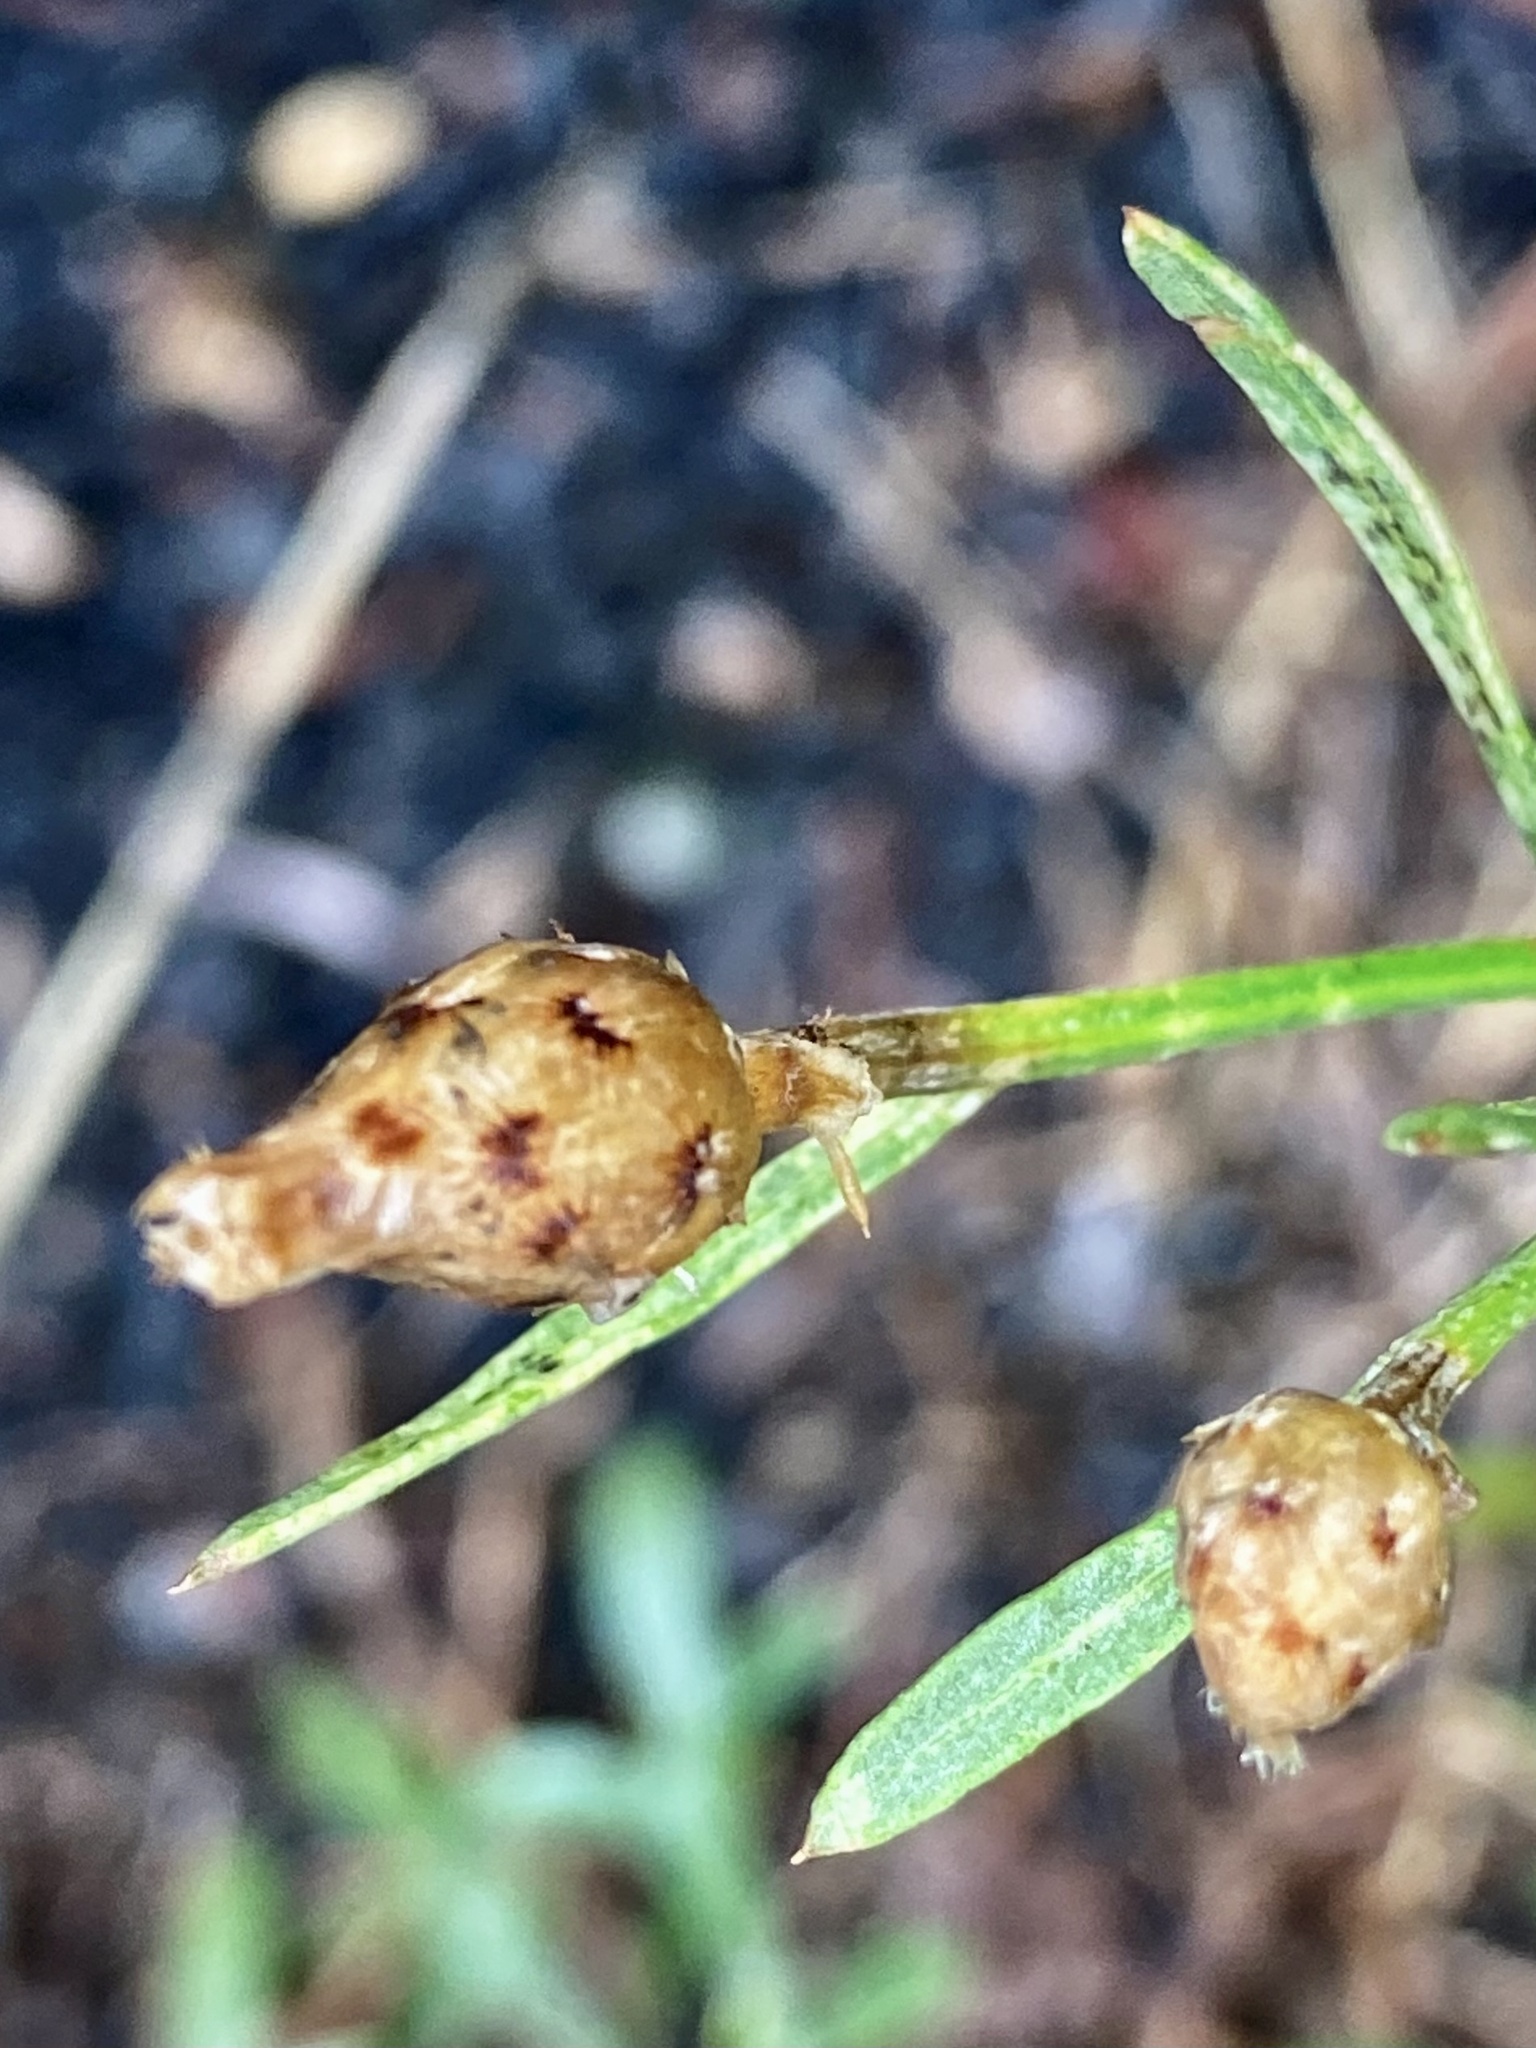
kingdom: Plantae
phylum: Tracheophyta
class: Magnoliopsida
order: Asterales
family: Asteraceae
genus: Centaurea
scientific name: Centaurea stoebe
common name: Spotted knapweed
